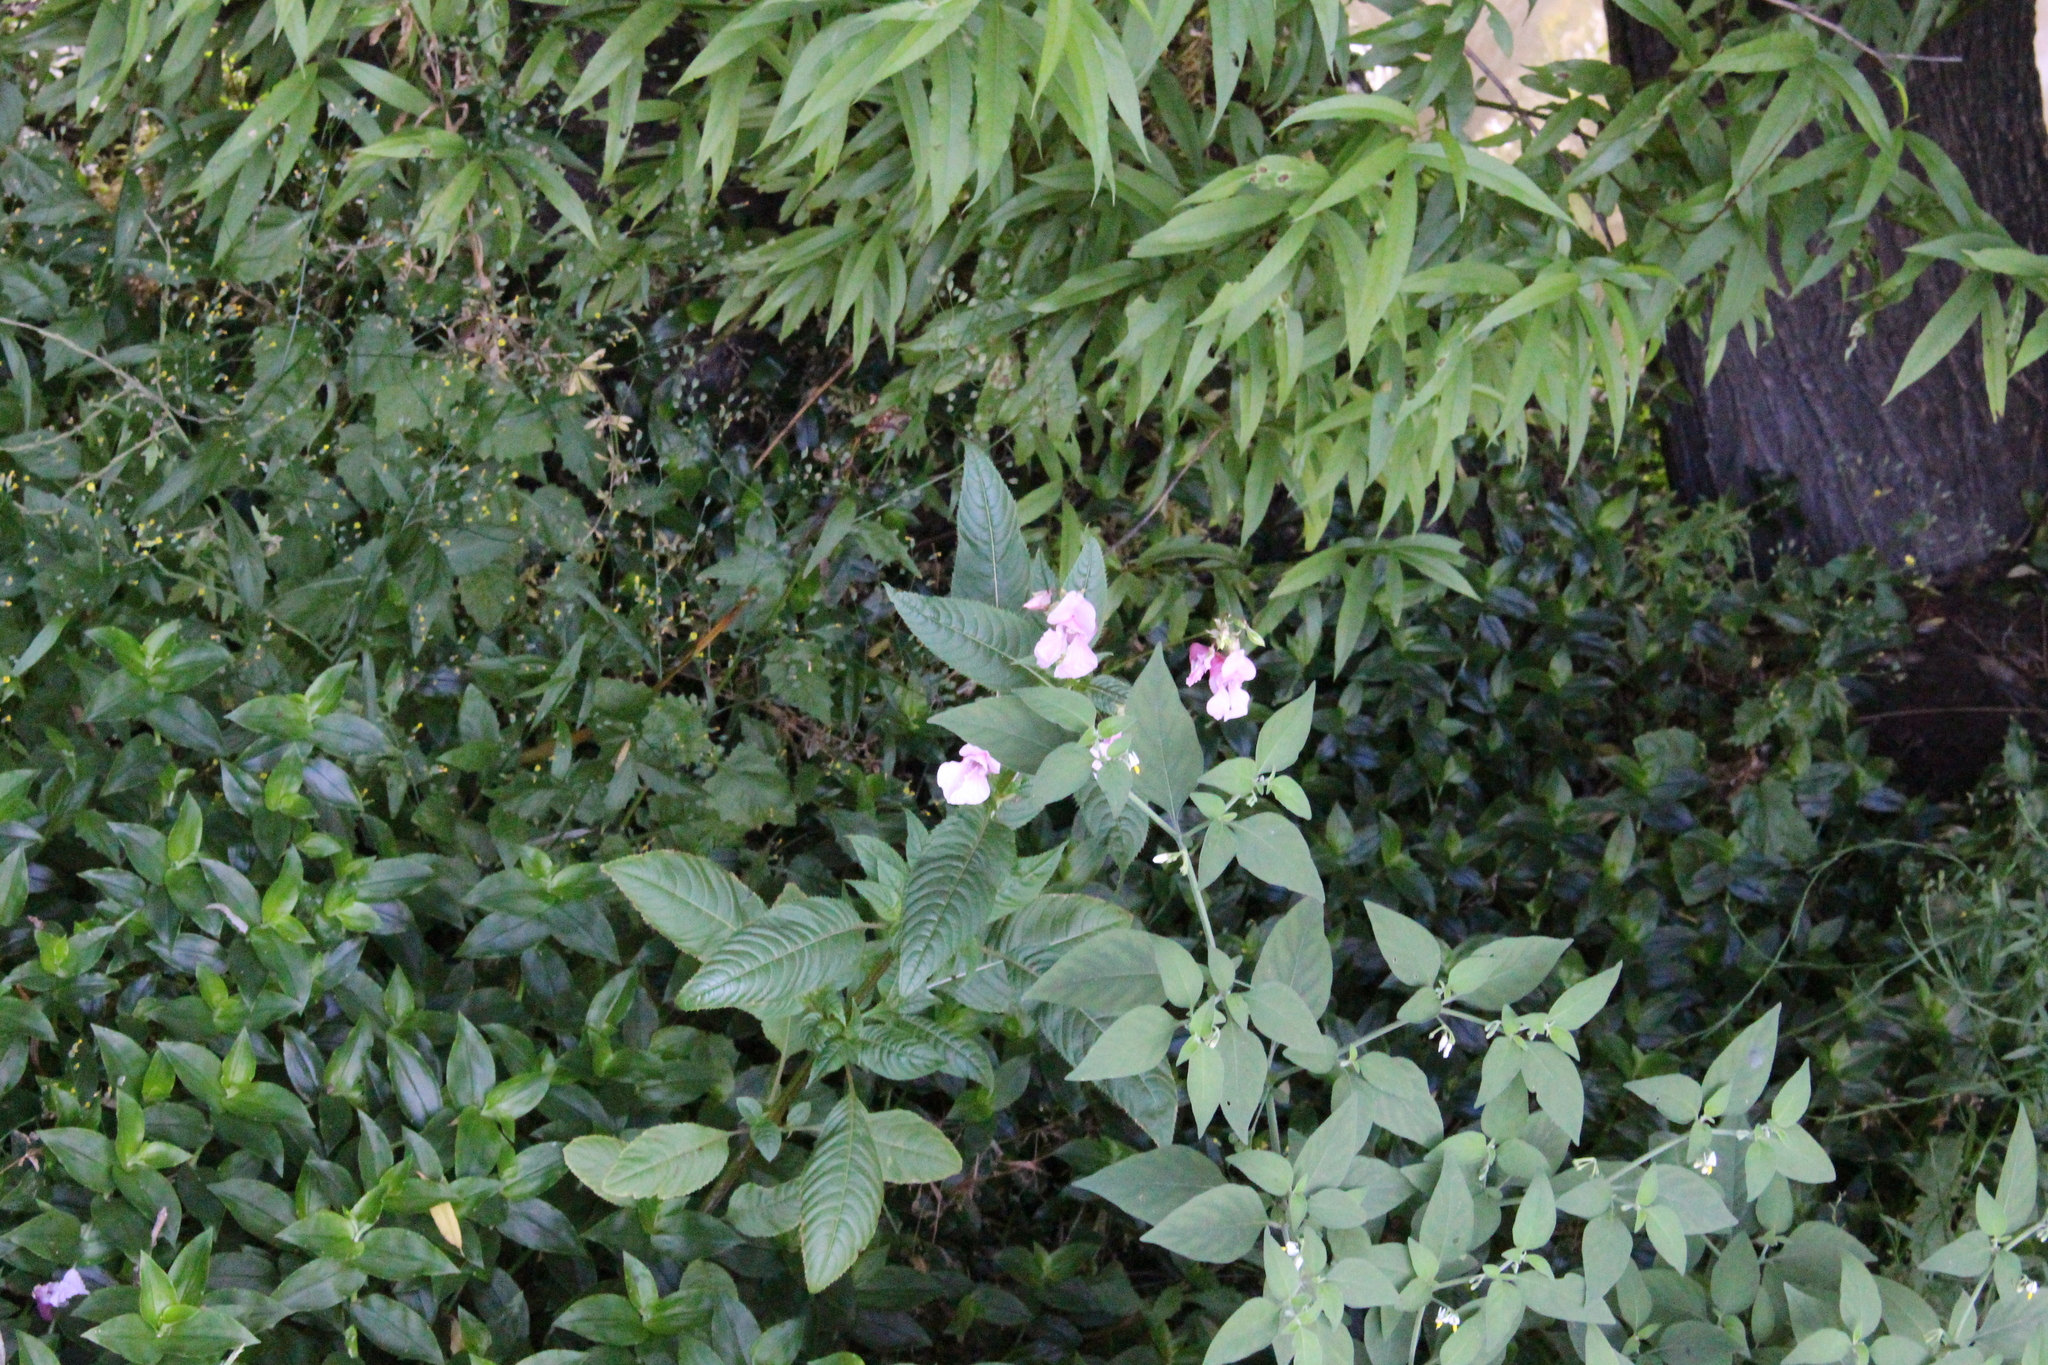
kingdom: Plantae
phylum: Tracheophyta
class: Magnoliopsida
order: Ericales
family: Balsaminaceae
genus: Impatiens
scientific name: Impatiens glandulifera
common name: Himalayan balsam
